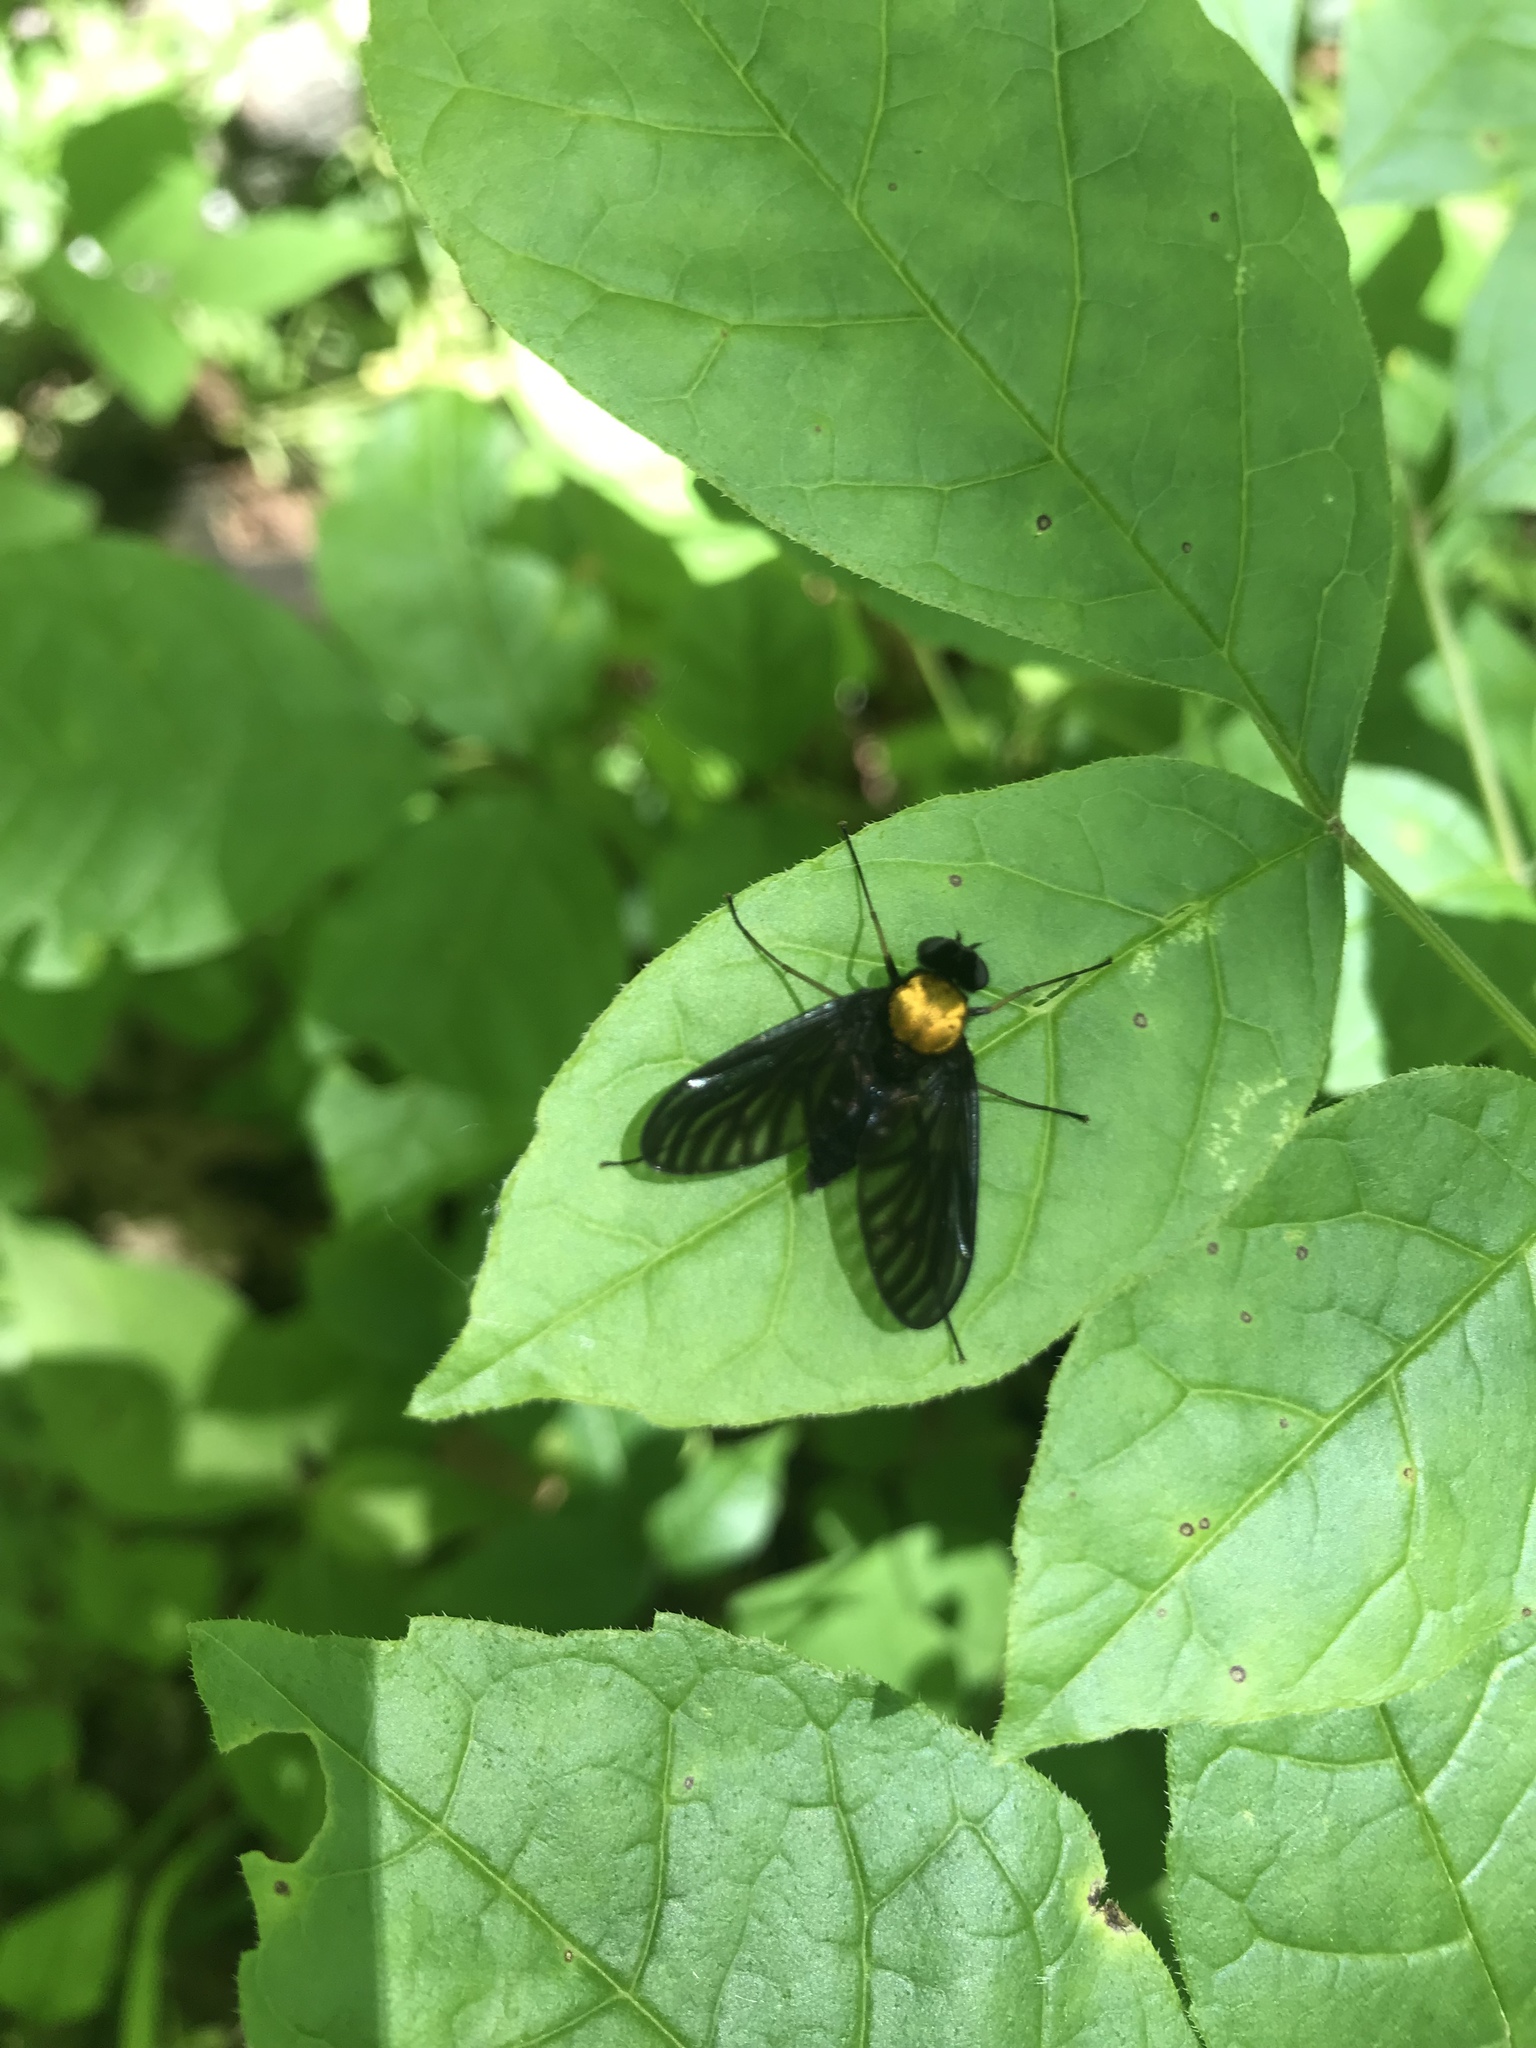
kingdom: Animalia
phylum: Arthropoda
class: Insecta
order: Diptera
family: Rhagionidae
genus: Chrysopilus
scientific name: Chrysopilus thoracicus
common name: Golden-backed snipe fly
